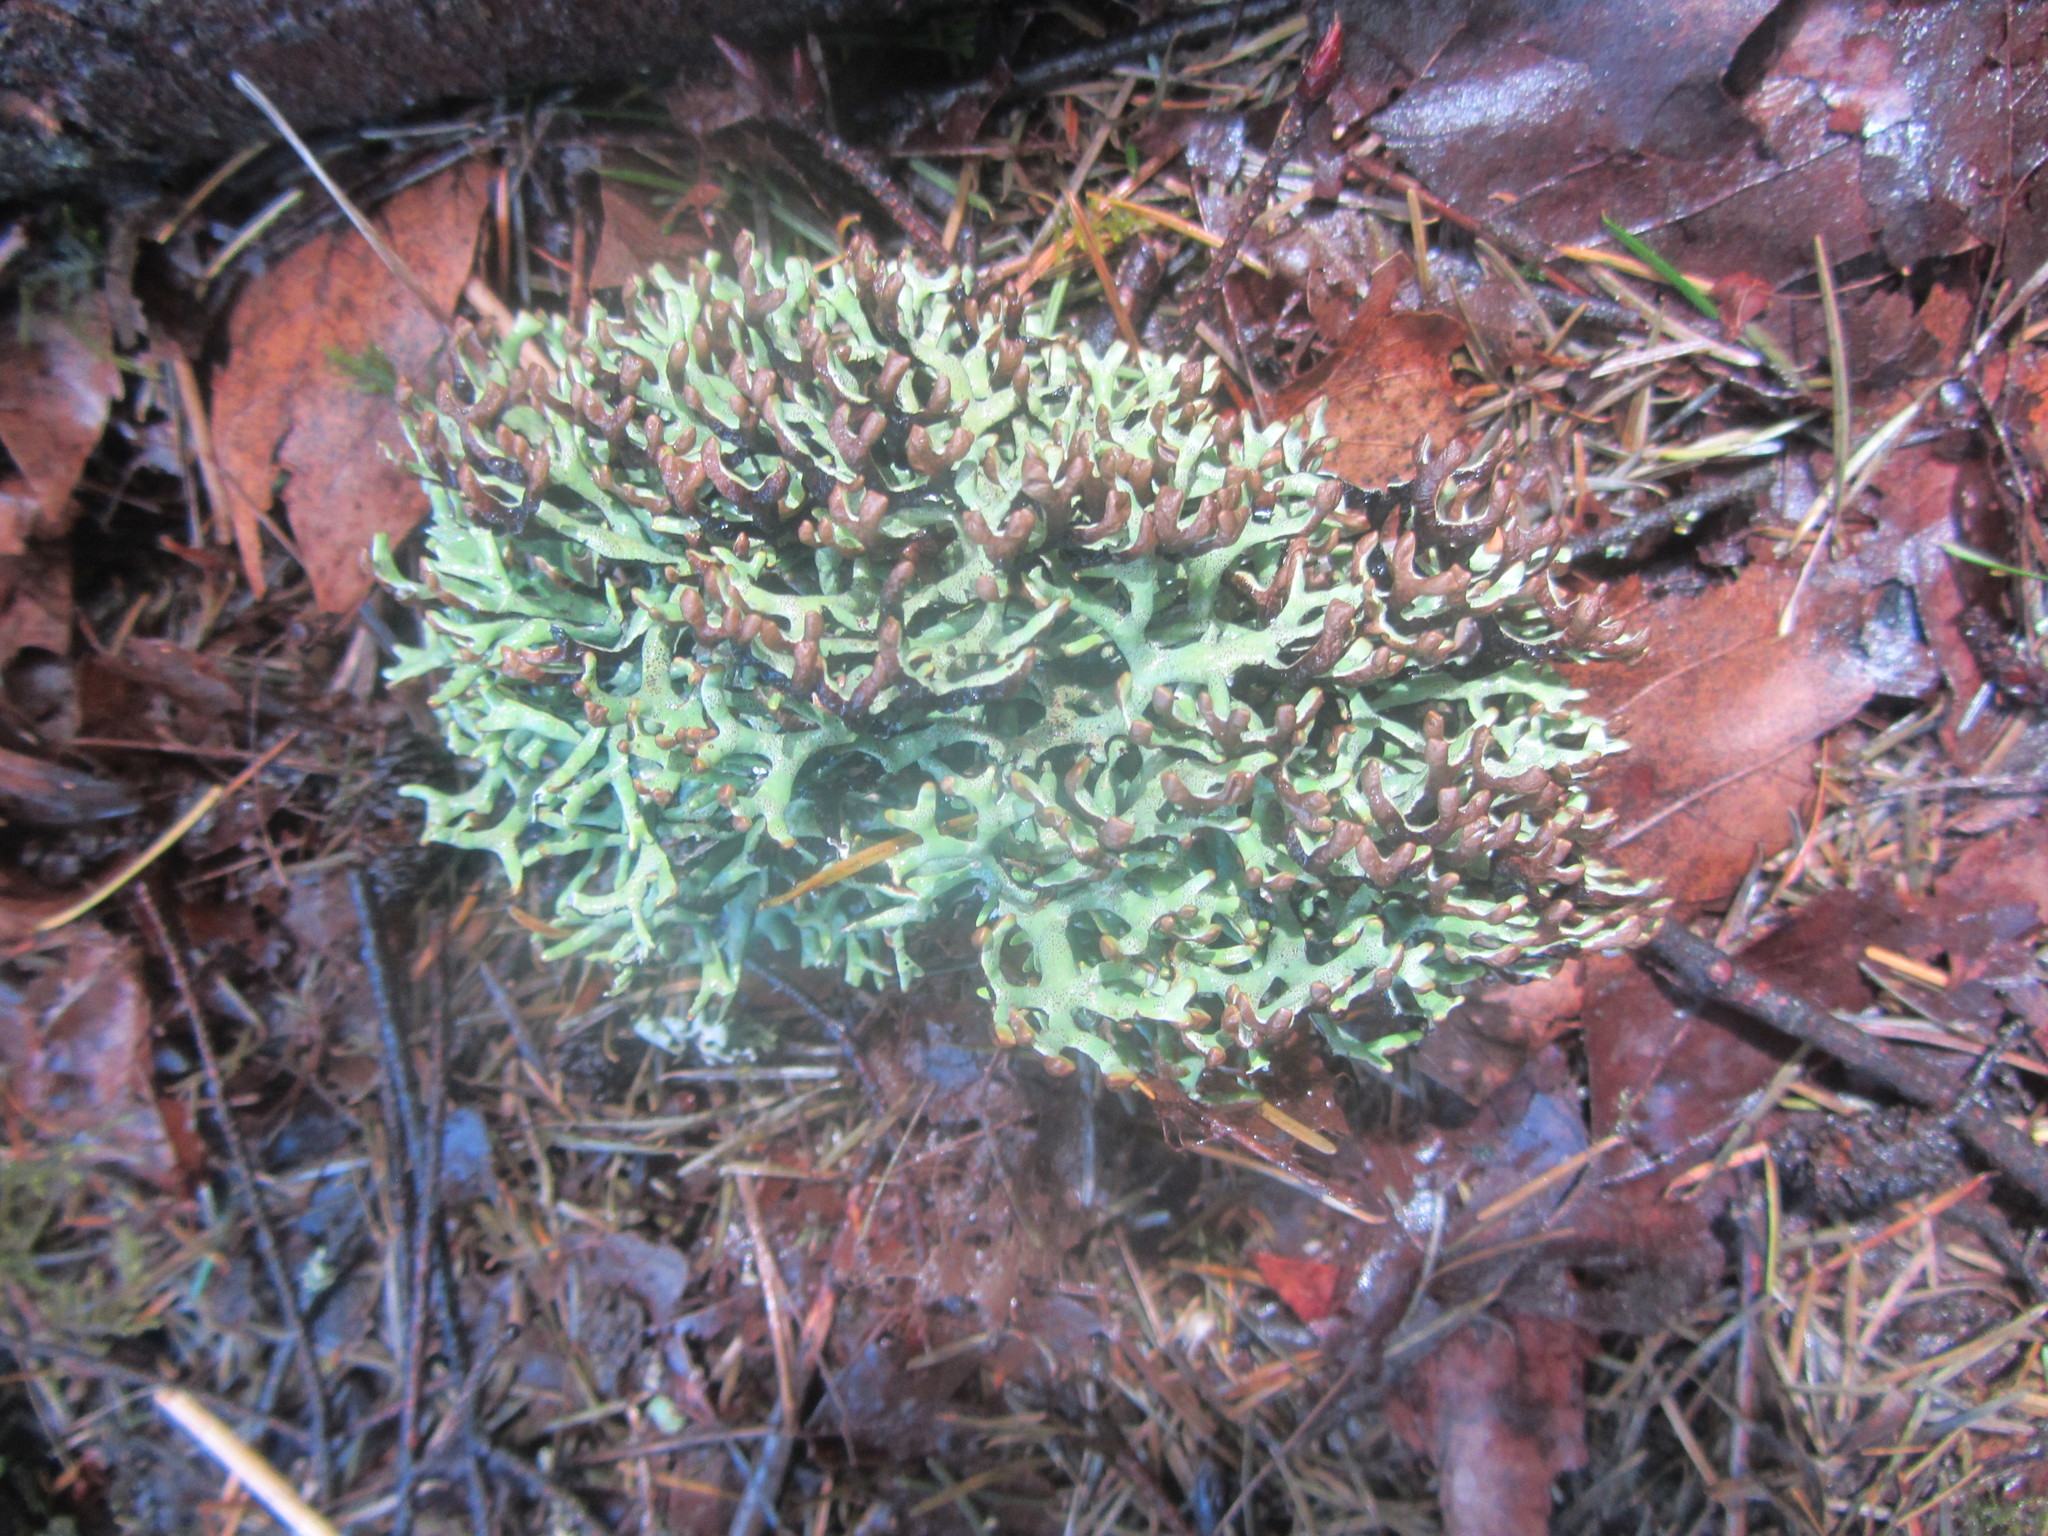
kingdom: Fungi
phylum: Ascomycota
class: Lecanoromycetes
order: Lecanorales
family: Parmeliaceae
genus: Hypogymnia
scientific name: Hypogymnia imshaugii
